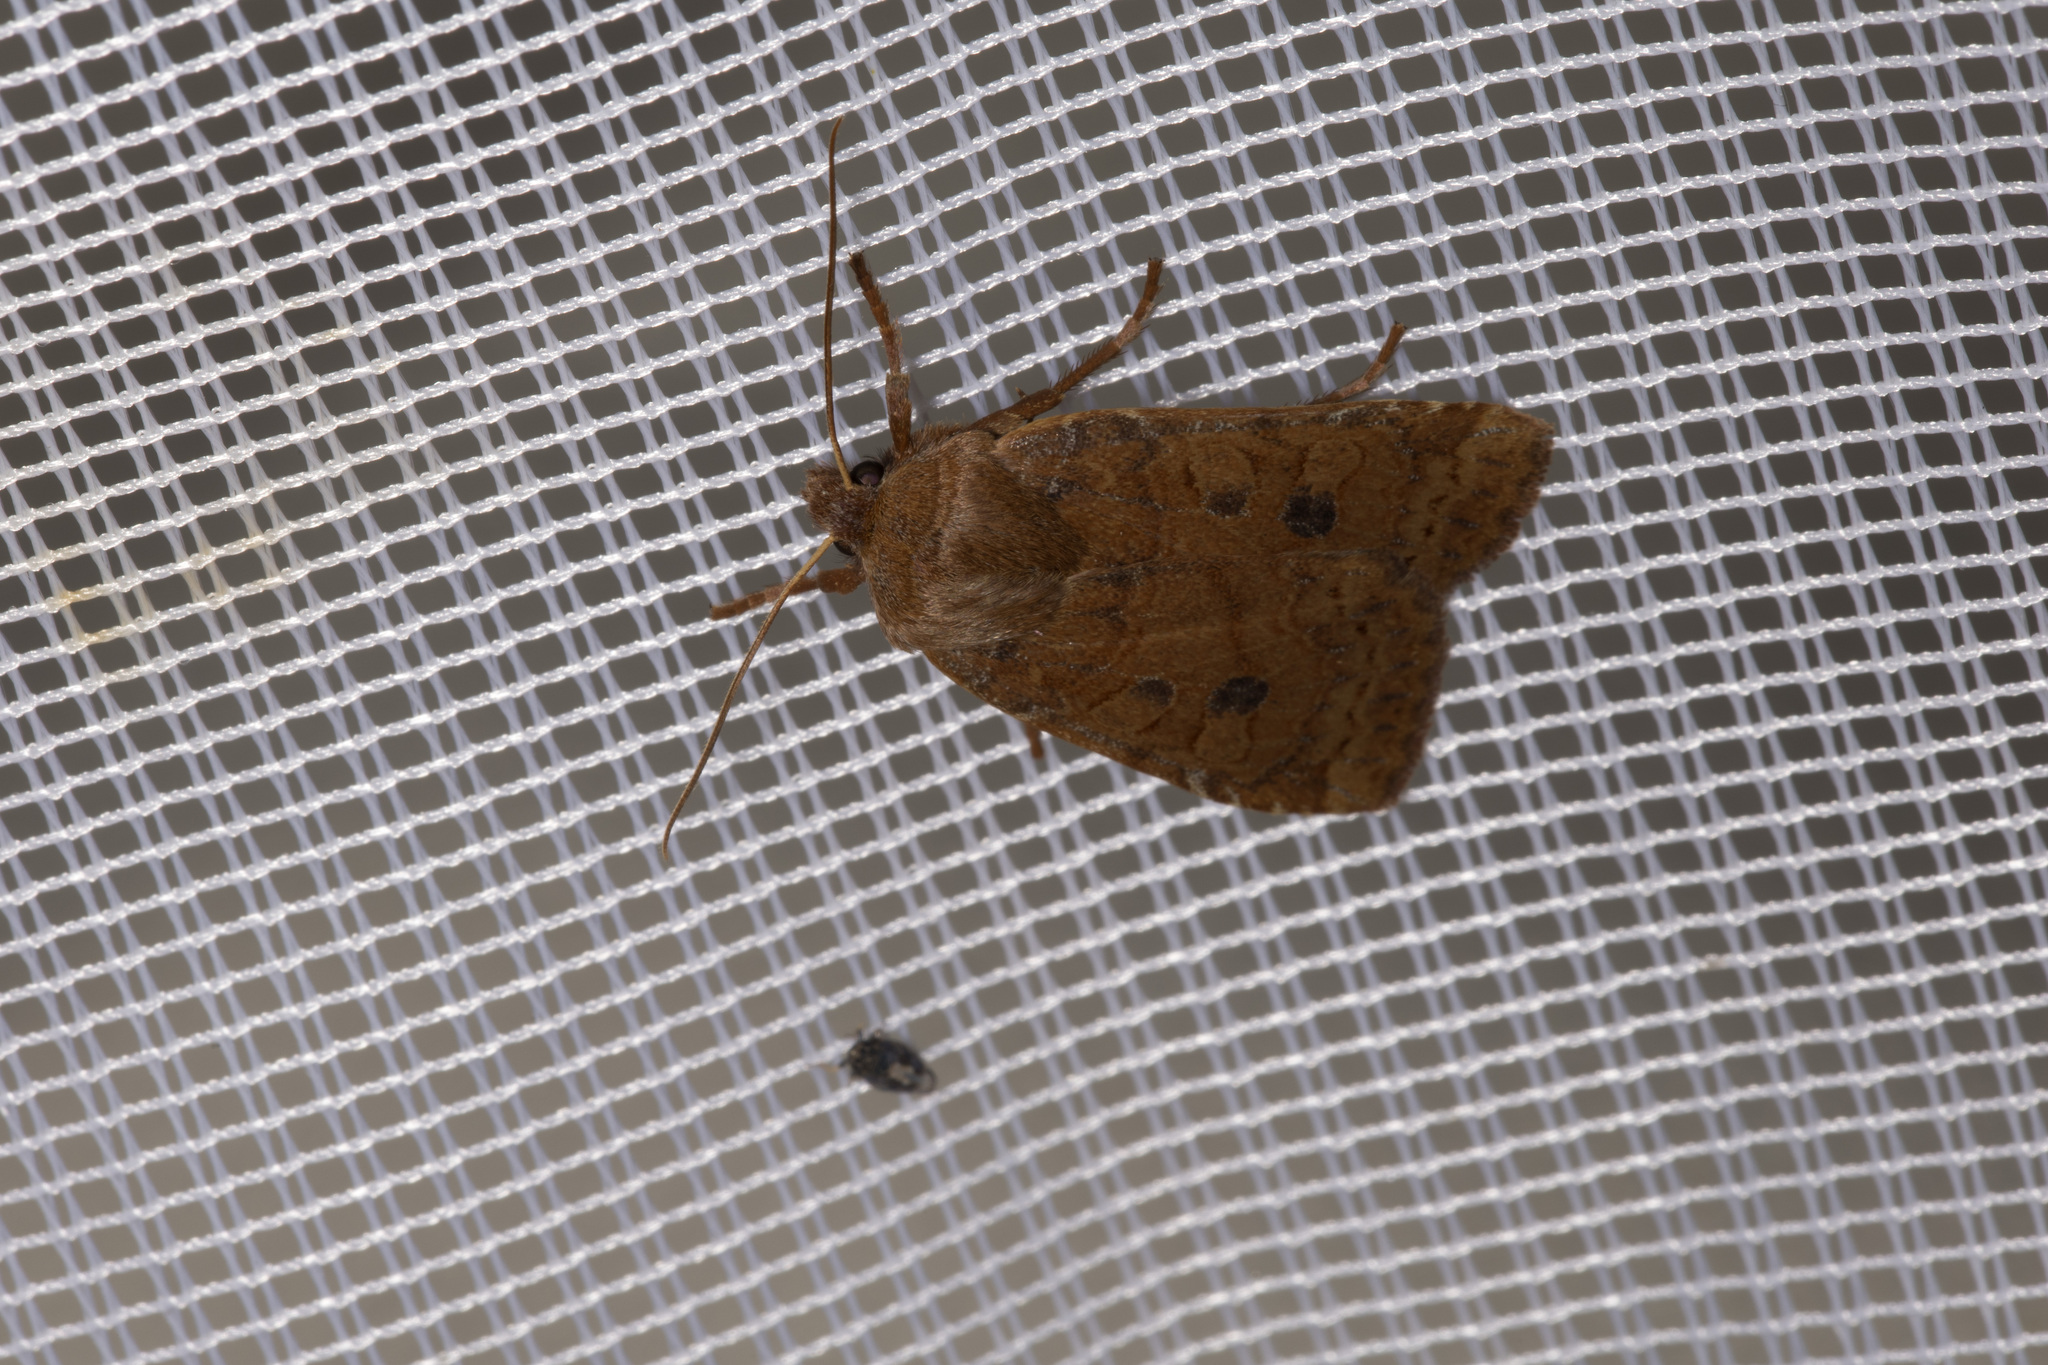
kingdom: Animalia
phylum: Arthropoda
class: Insecta
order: Lepidoptera
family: Noctuidae
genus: Conistra
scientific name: Conistra vaccinii
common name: Chestnut
